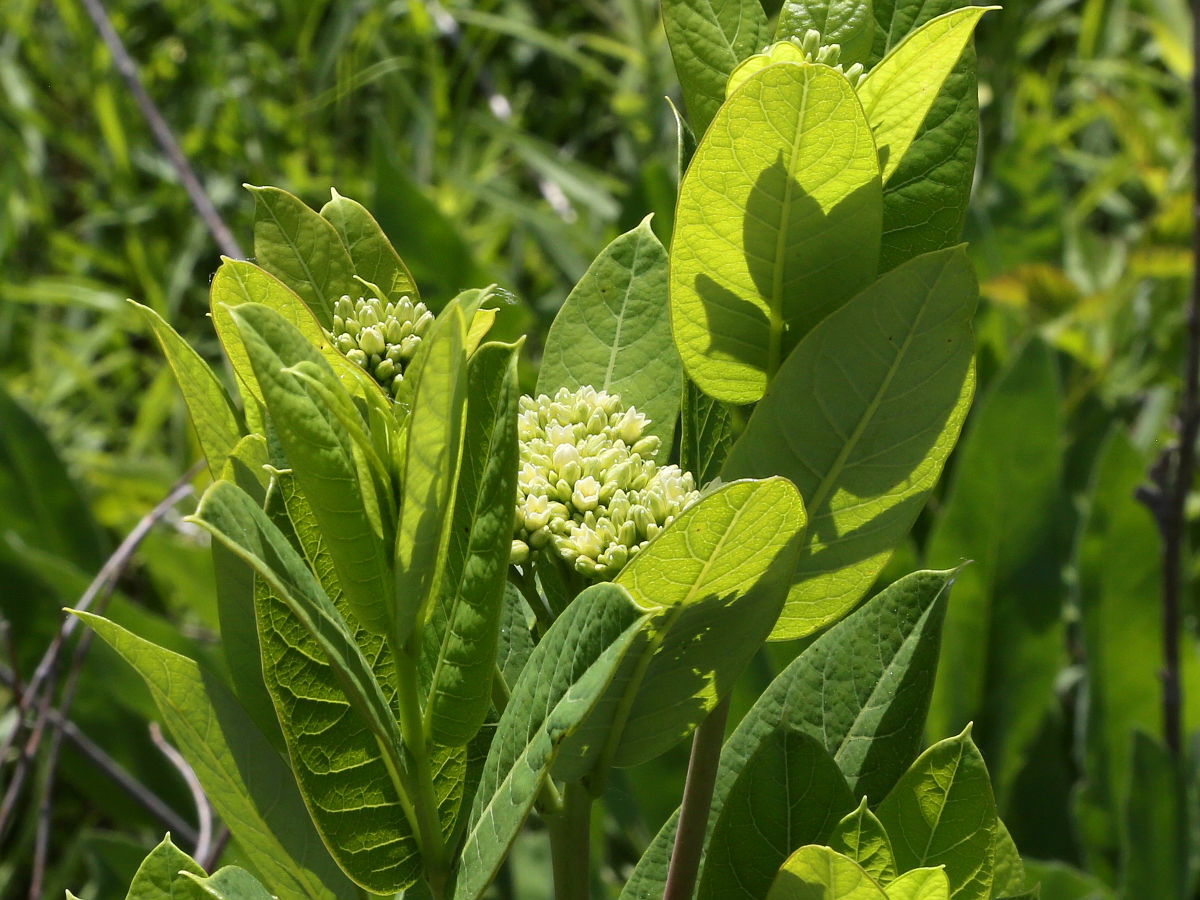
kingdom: Plantae
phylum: Tracheophyta
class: Magnoliopsida
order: Gentianales
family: Apocynaceae
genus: Apocynum
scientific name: Apocynum cannabinum
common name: Hemp dogbane
